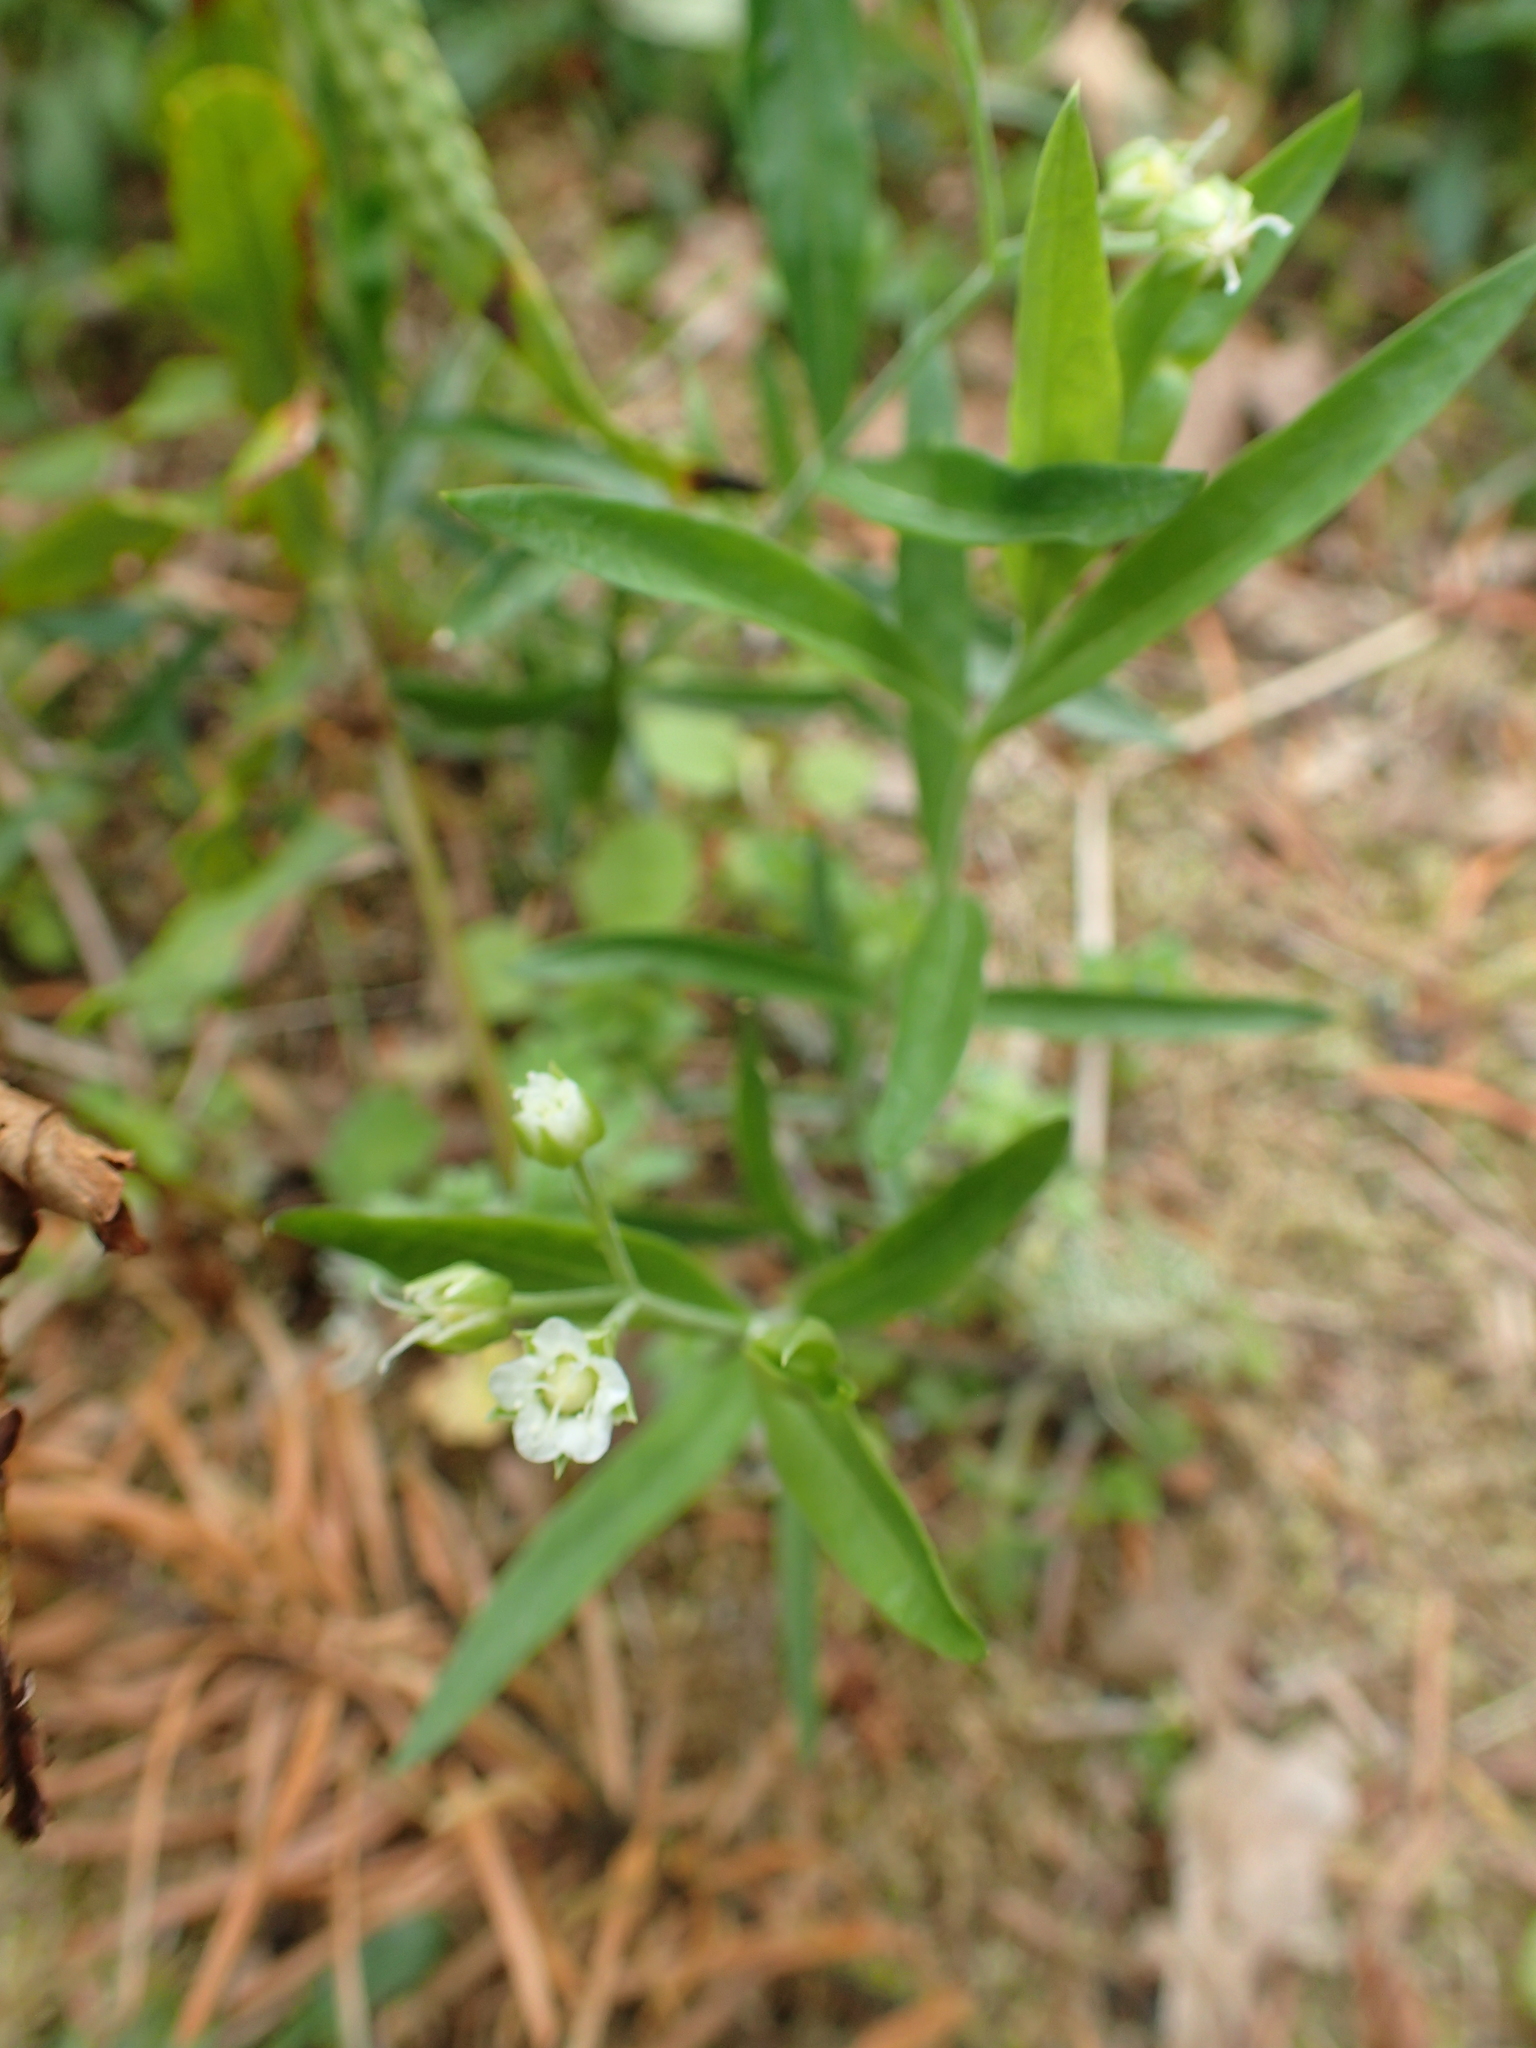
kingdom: Plantae
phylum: Tracheophyta
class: Magnoliopsida
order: Caryophyllales
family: Caryophyllaceae
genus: Moehringia
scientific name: Moehringia macrophylla
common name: Big-leaf sandwort
